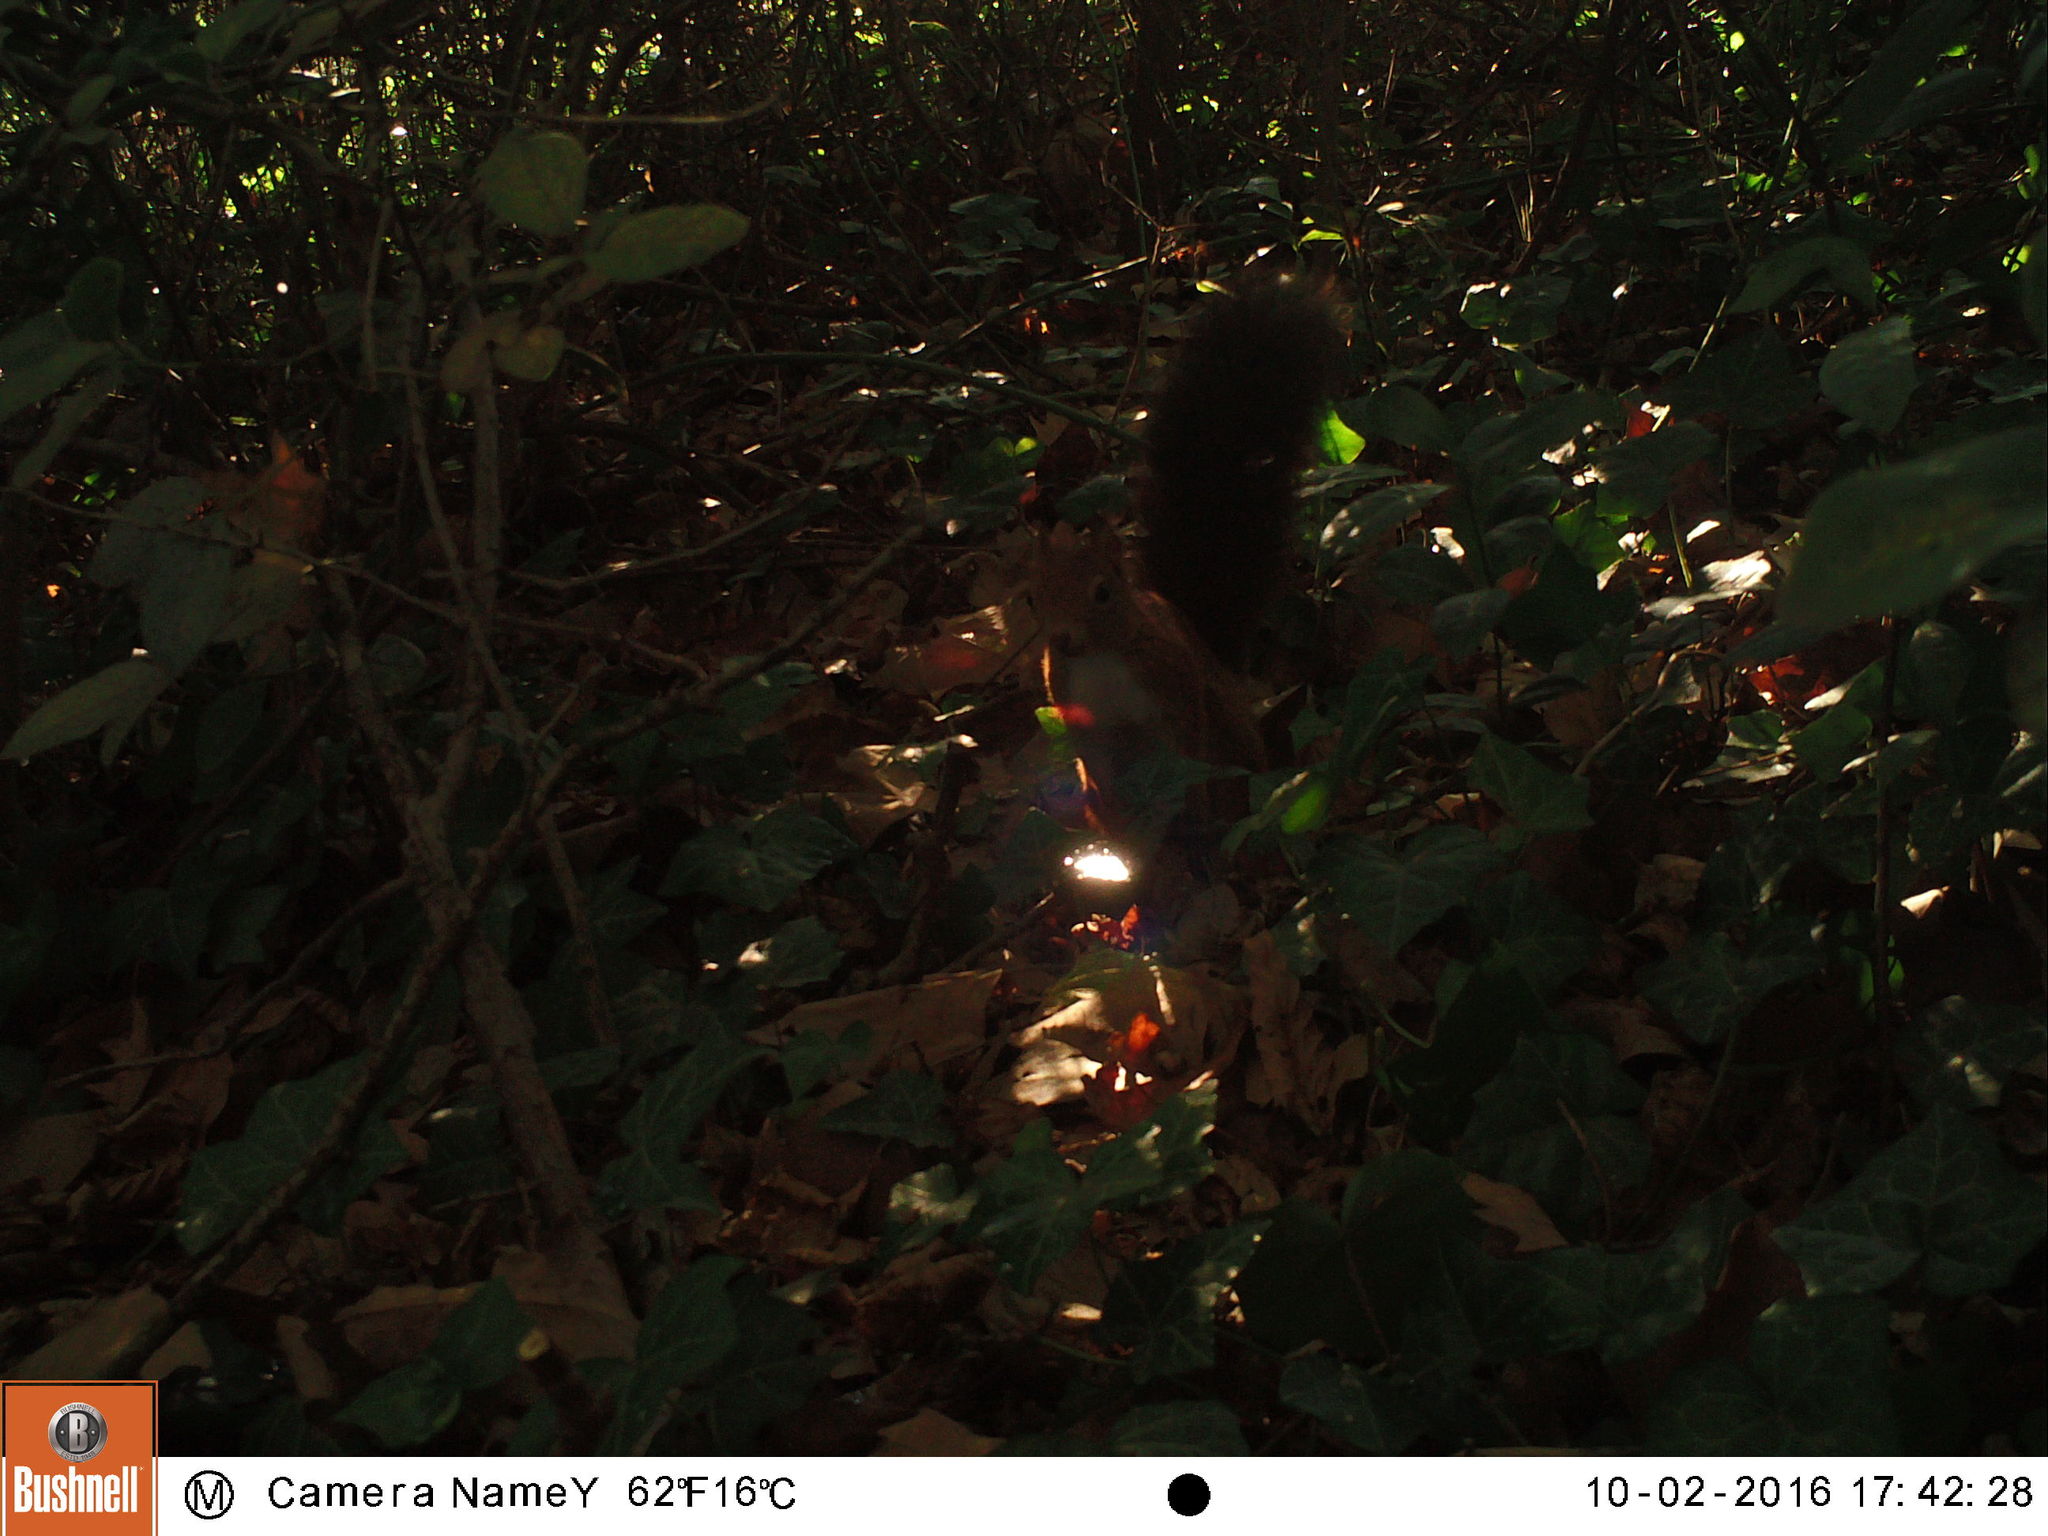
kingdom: Animalia
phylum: Chordata
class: Mammalia
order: Rodentia
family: Sciuridae
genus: Sciurus
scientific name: Sciurus vulgaris
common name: Eurasian red squirrel
